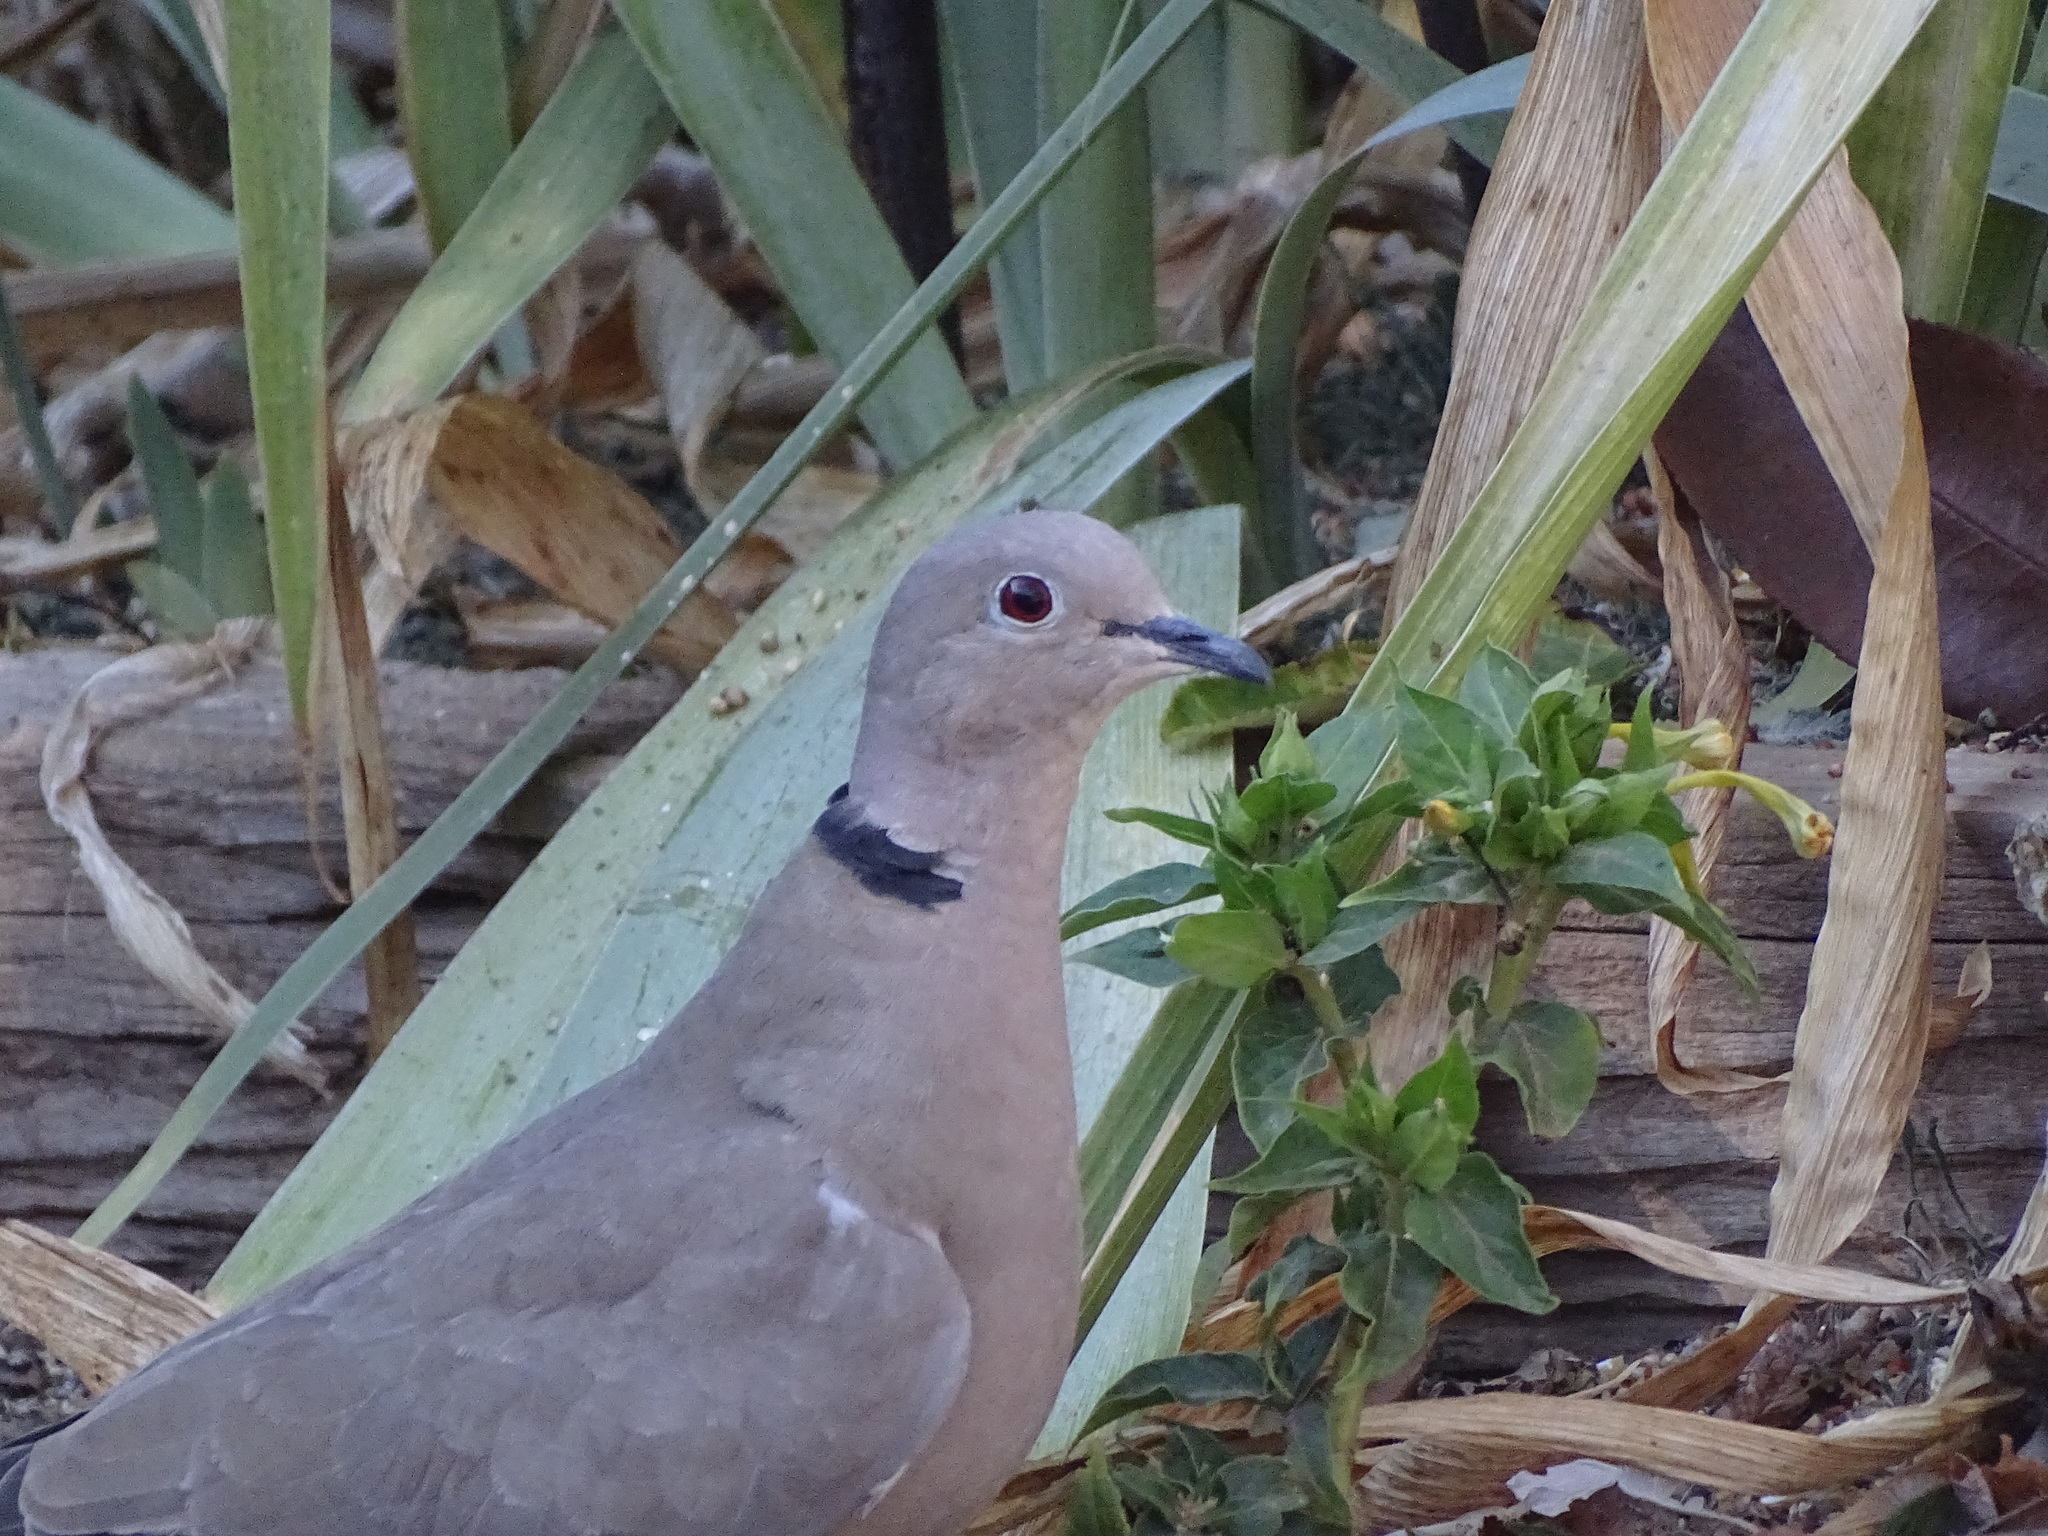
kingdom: Animalia
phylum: Chordata
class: Aves
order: Columbiformes
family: Columbidae
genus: Streptopelia
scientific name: Streptopelia decaocto
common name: Eurasian collared dove
